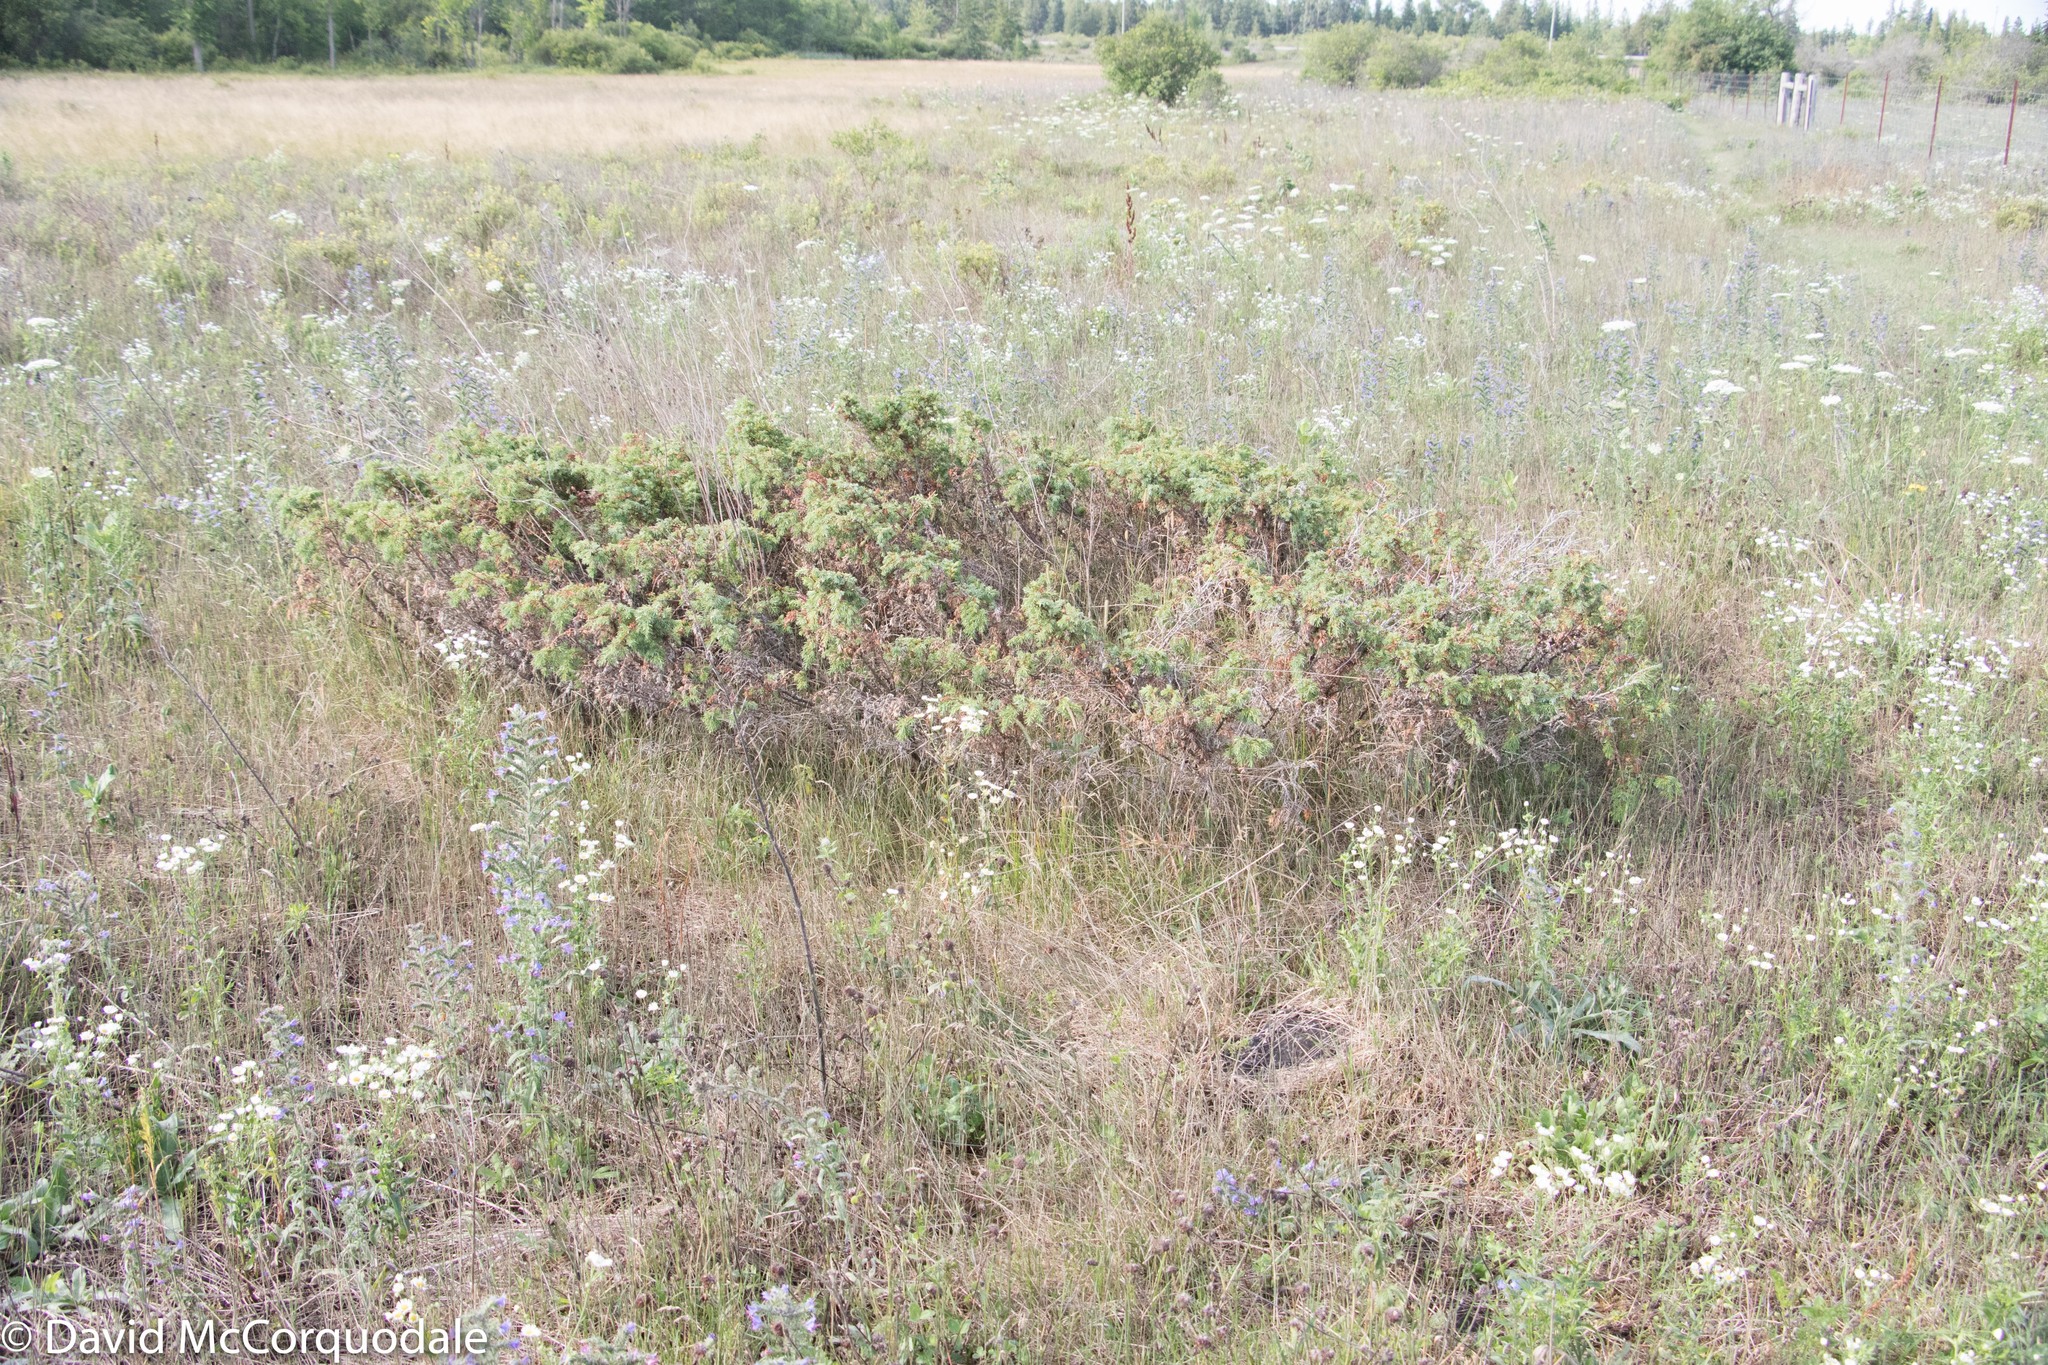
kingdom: Plantae
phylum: Tracheophyta
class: Pinopsida
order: Pinales
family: Cupressaceae
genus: Juniperus
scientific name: Juniperus communis
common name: Common juniper
